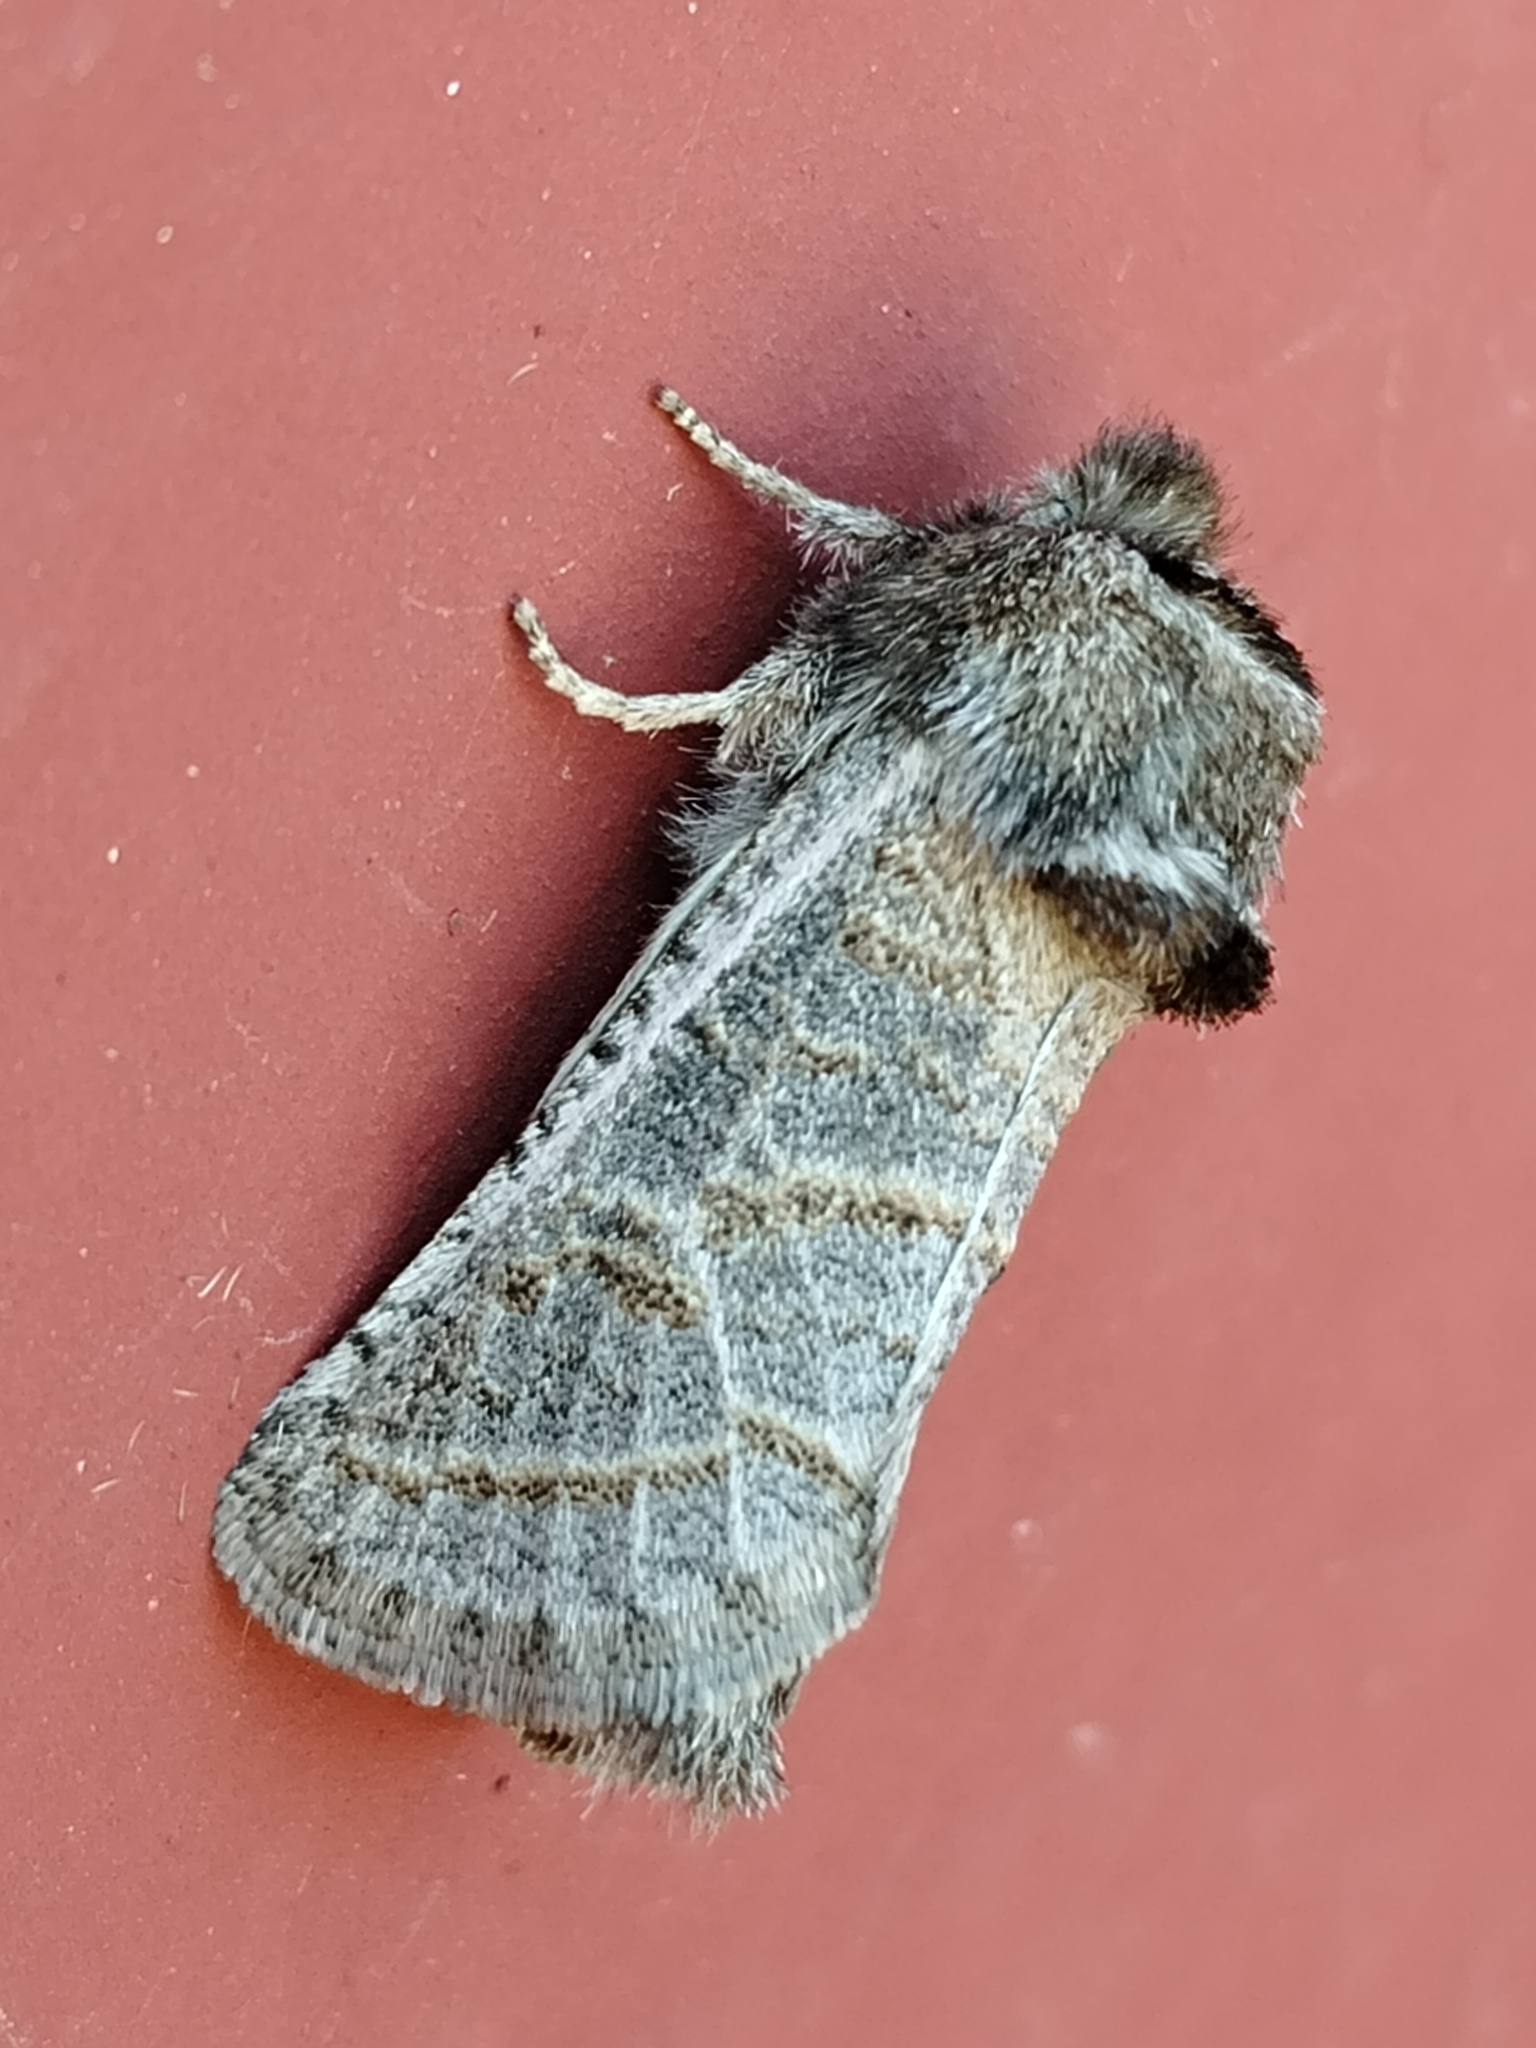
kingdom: Animalia
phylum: Arthropoda
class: Insecta
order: Lepidoptera
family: Cossidae
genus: Comadia
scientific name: Comadia redtenbacheri
